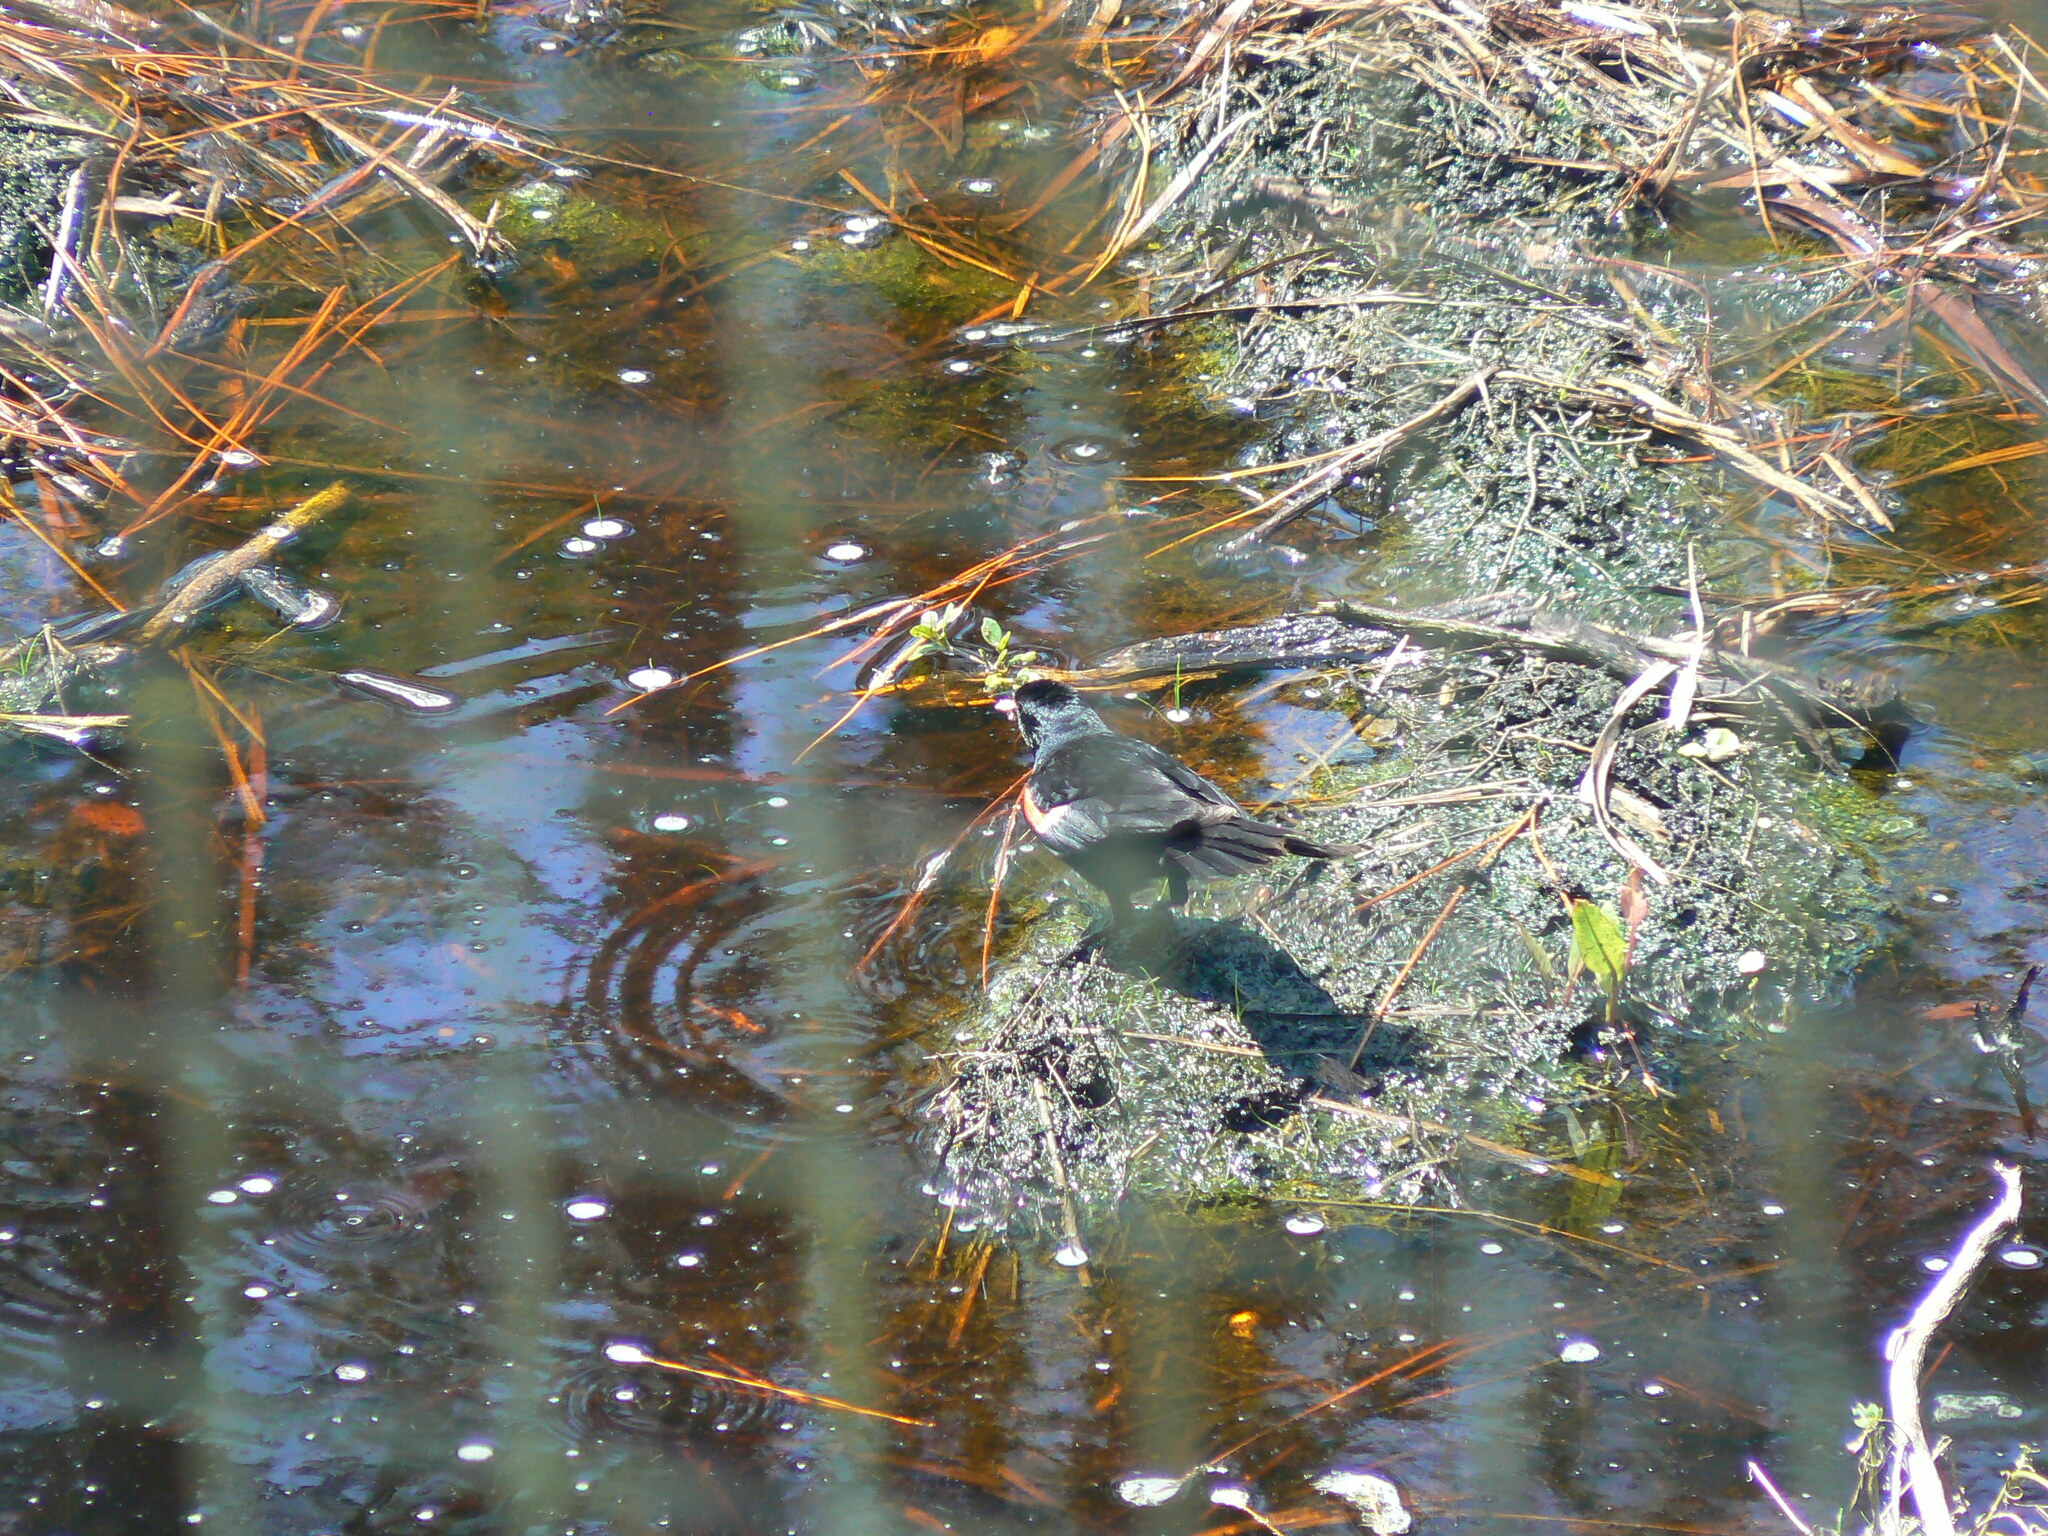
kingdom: Animalia
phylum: Chordata
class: Aves
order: Passeriformes
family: Icteridae
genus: Agelaius
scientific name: Agelaius phoeniceus
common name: Red-winged blackbird
